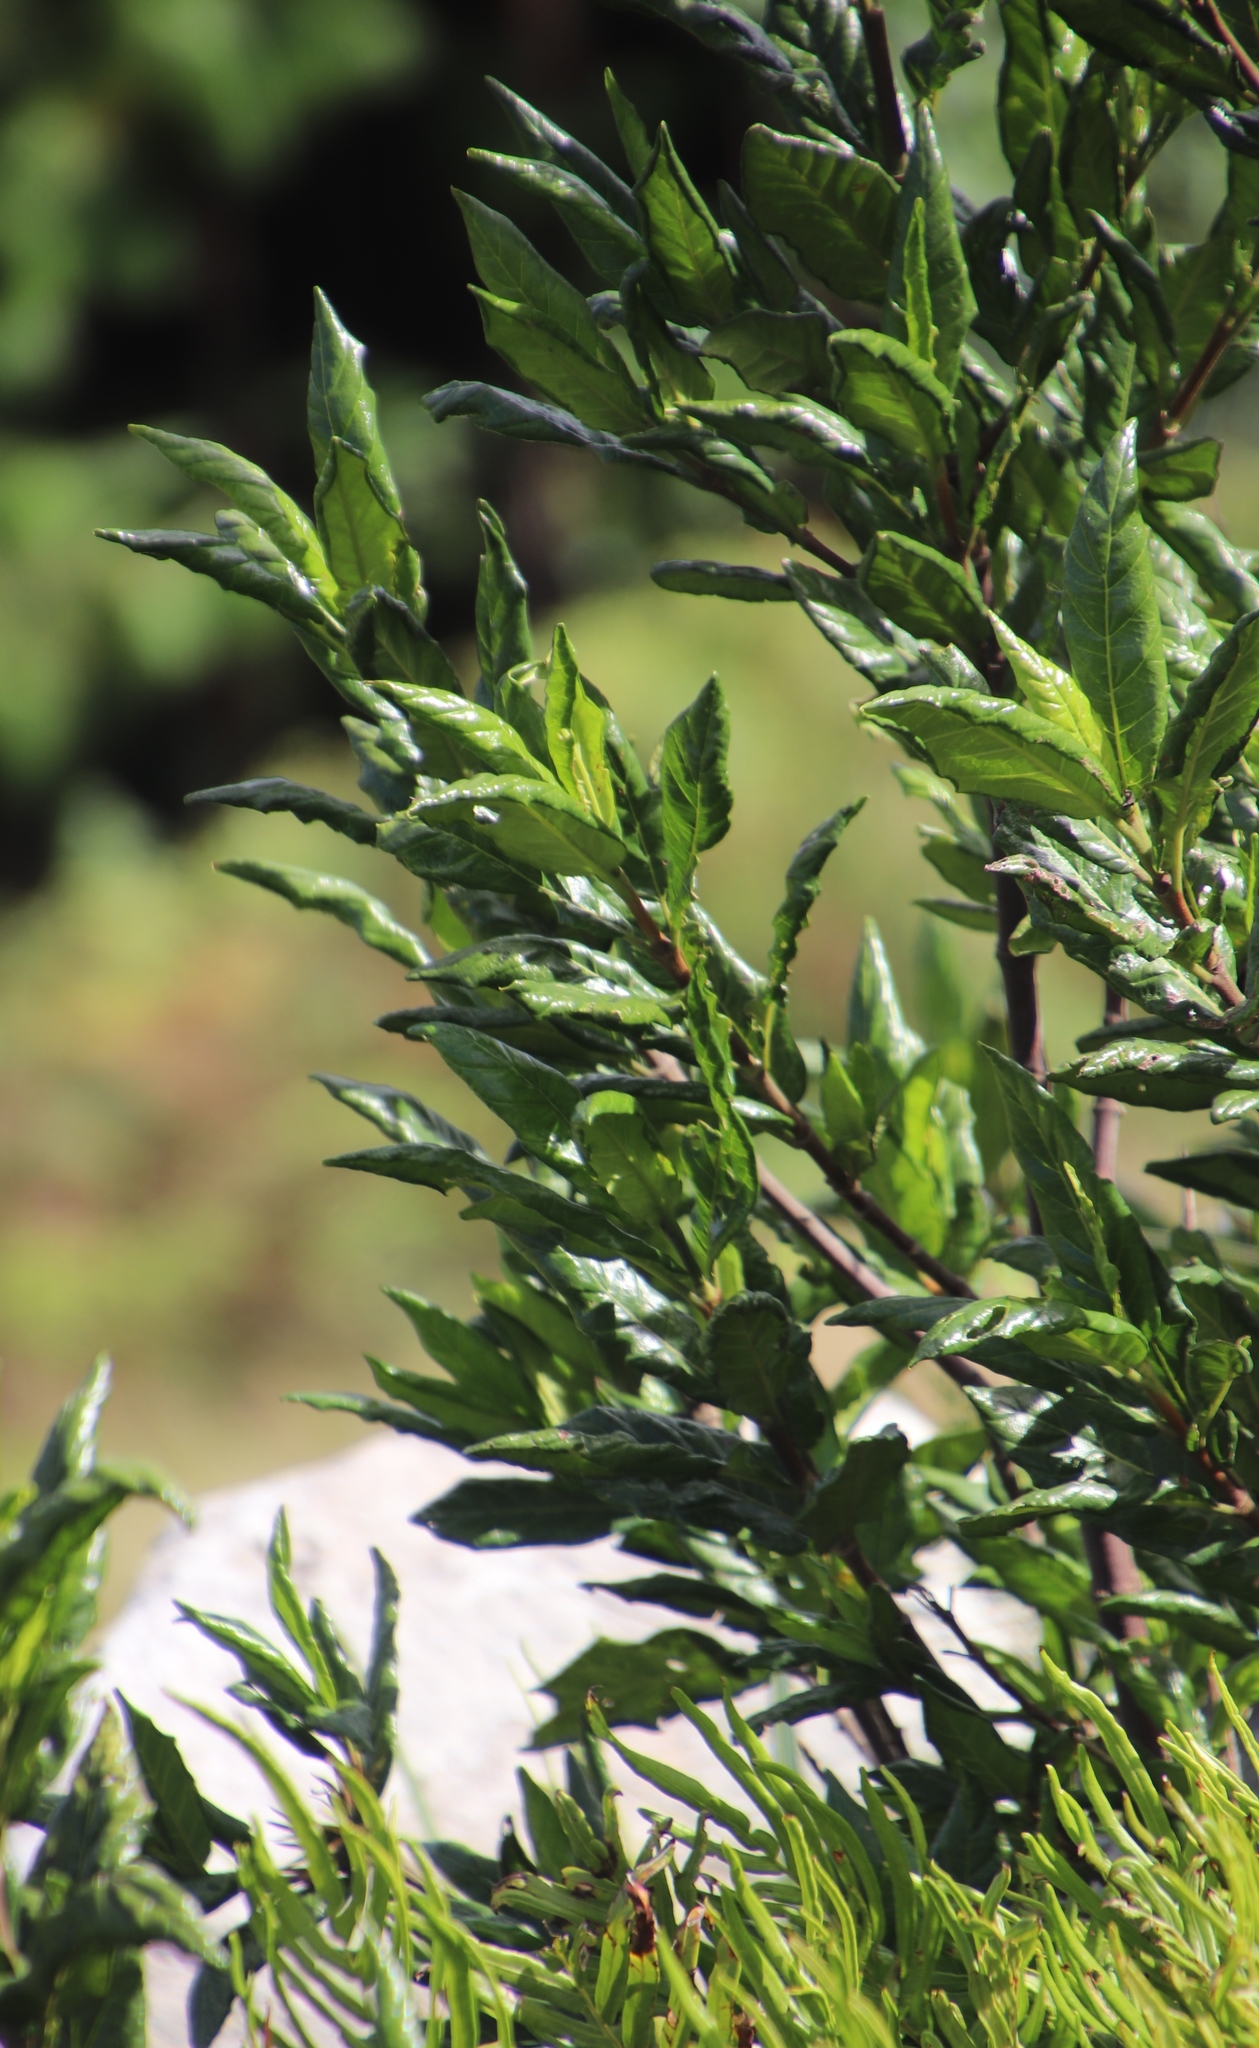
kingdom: Plantae
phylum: Tracheophyta
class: Magnoliopsida
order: Gentianales
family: Rubiaceae
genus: Burchellia
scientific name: Burchellia bubalina
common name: Wild pomegranate
